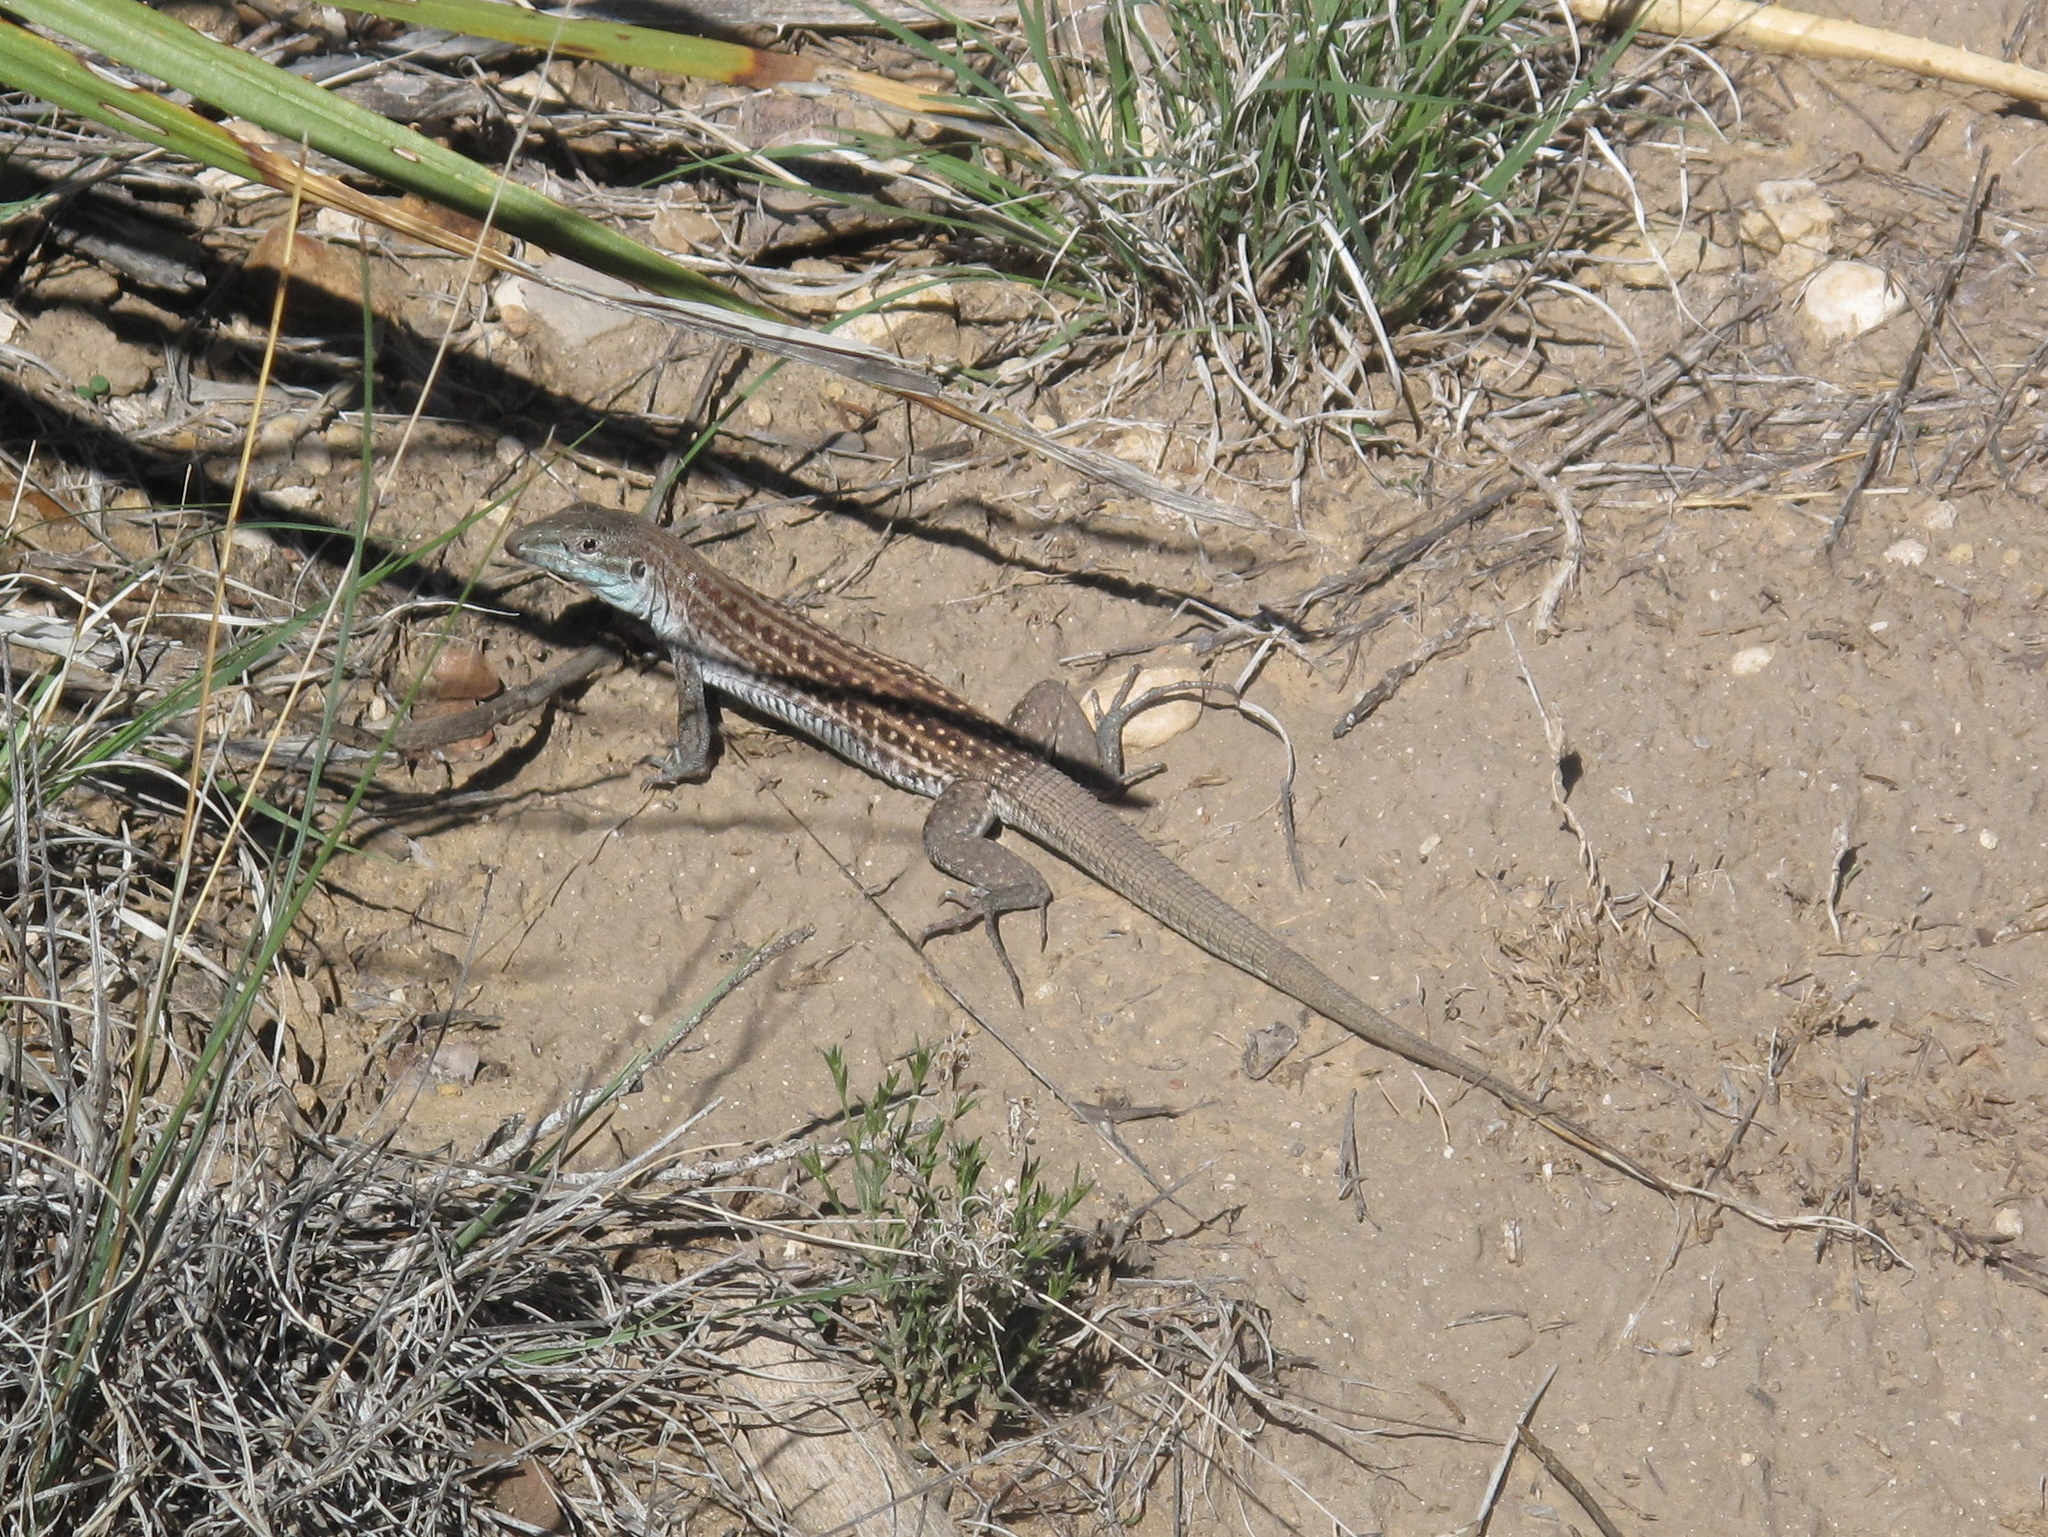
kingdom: Animalia
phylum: Chordata
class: Squamata
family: Teiidae
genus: Aspidoscelis
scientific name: Aspidoscelis exsanguis
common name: Chihuahuan spotted whiptail
